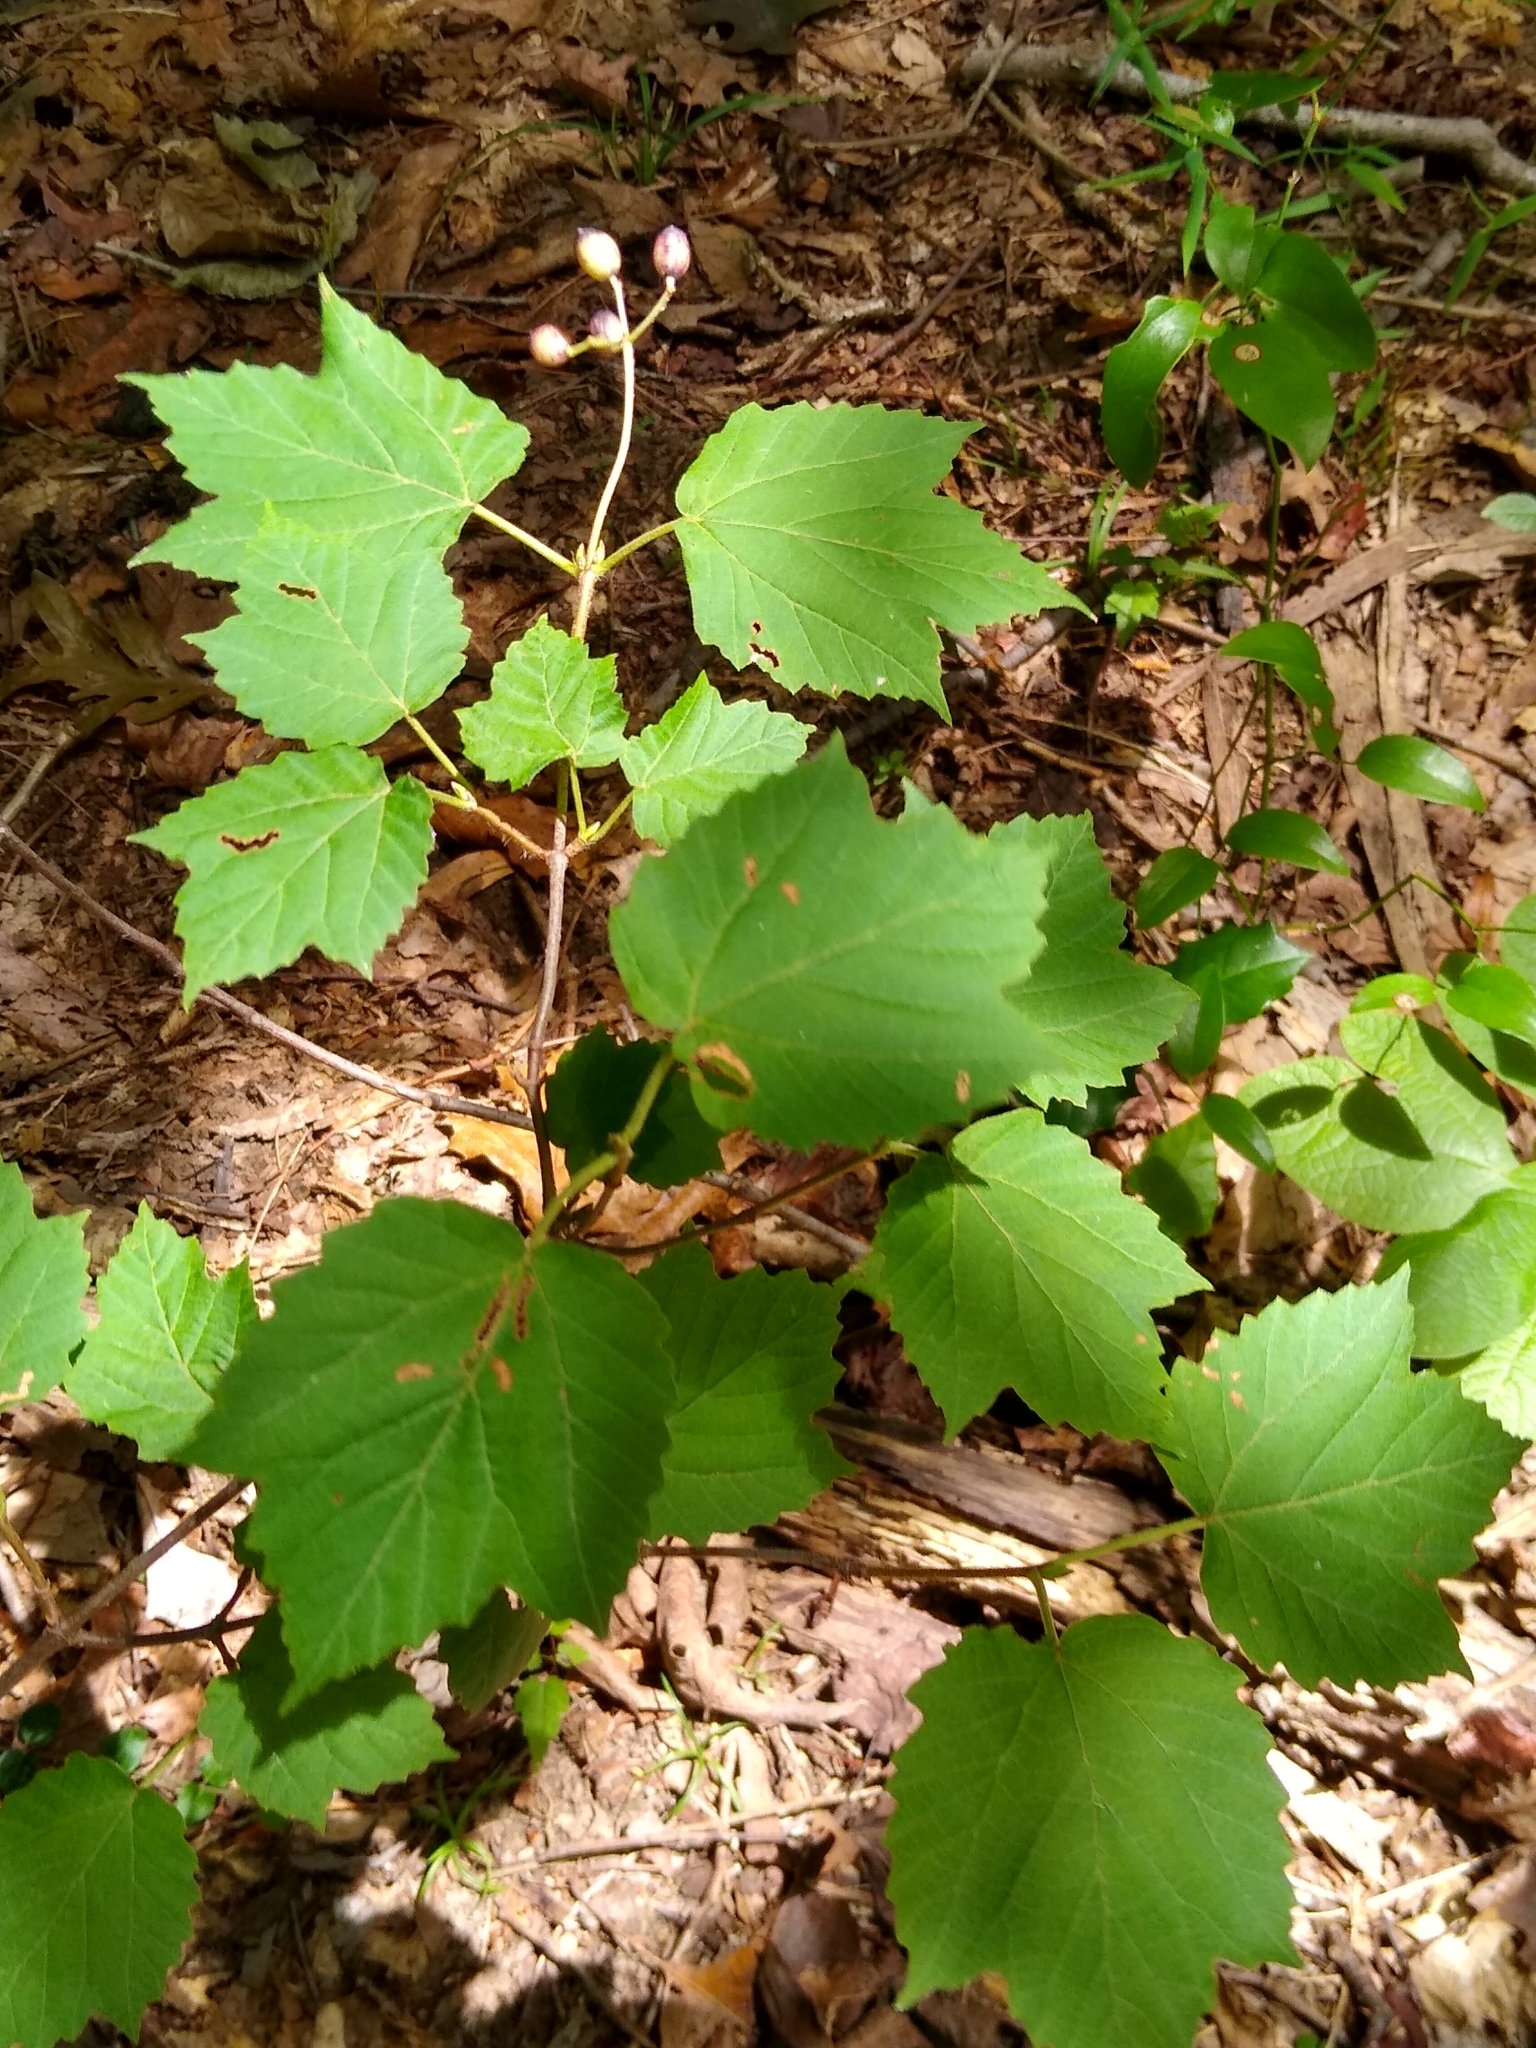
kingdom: Plantae
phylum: Tracheophyta
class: Magnoliopsida
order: Dipsacales
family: Viburnaceae
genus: Viburnum
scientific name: Viburnum acerifolium
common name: Dockmackie
